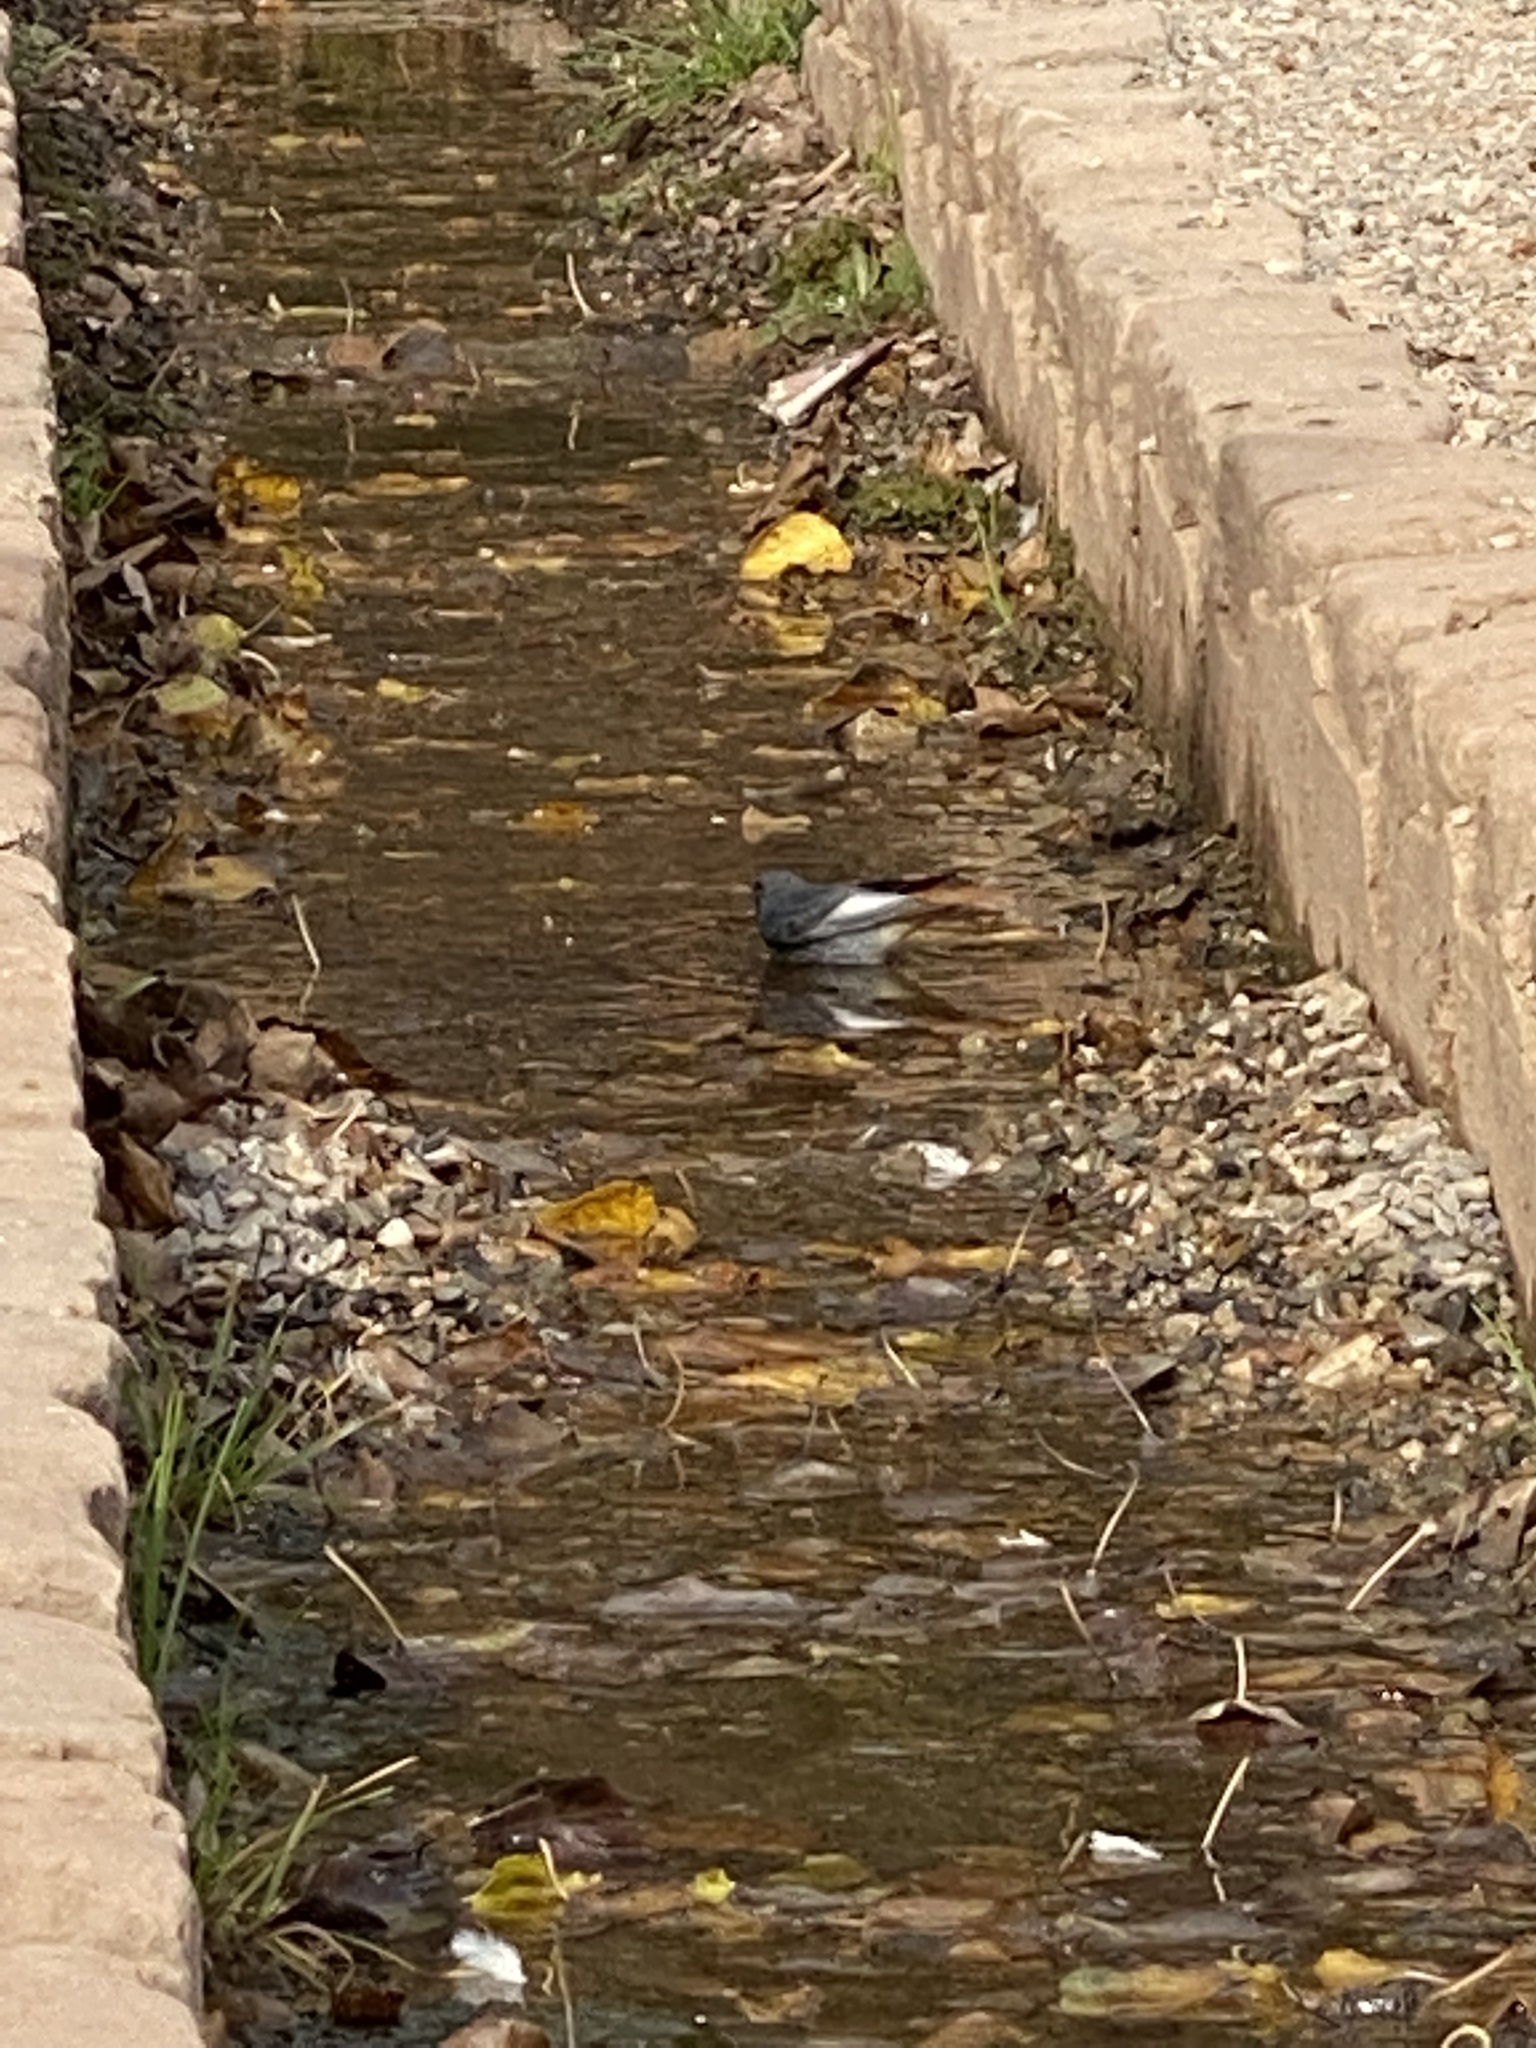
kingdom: Animalia
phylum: Chordata
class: Aves
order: Passeriformes
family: Muscicapidae
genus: Phoenicurus
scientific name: Phoenicurus ochruros
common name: Black redstart
